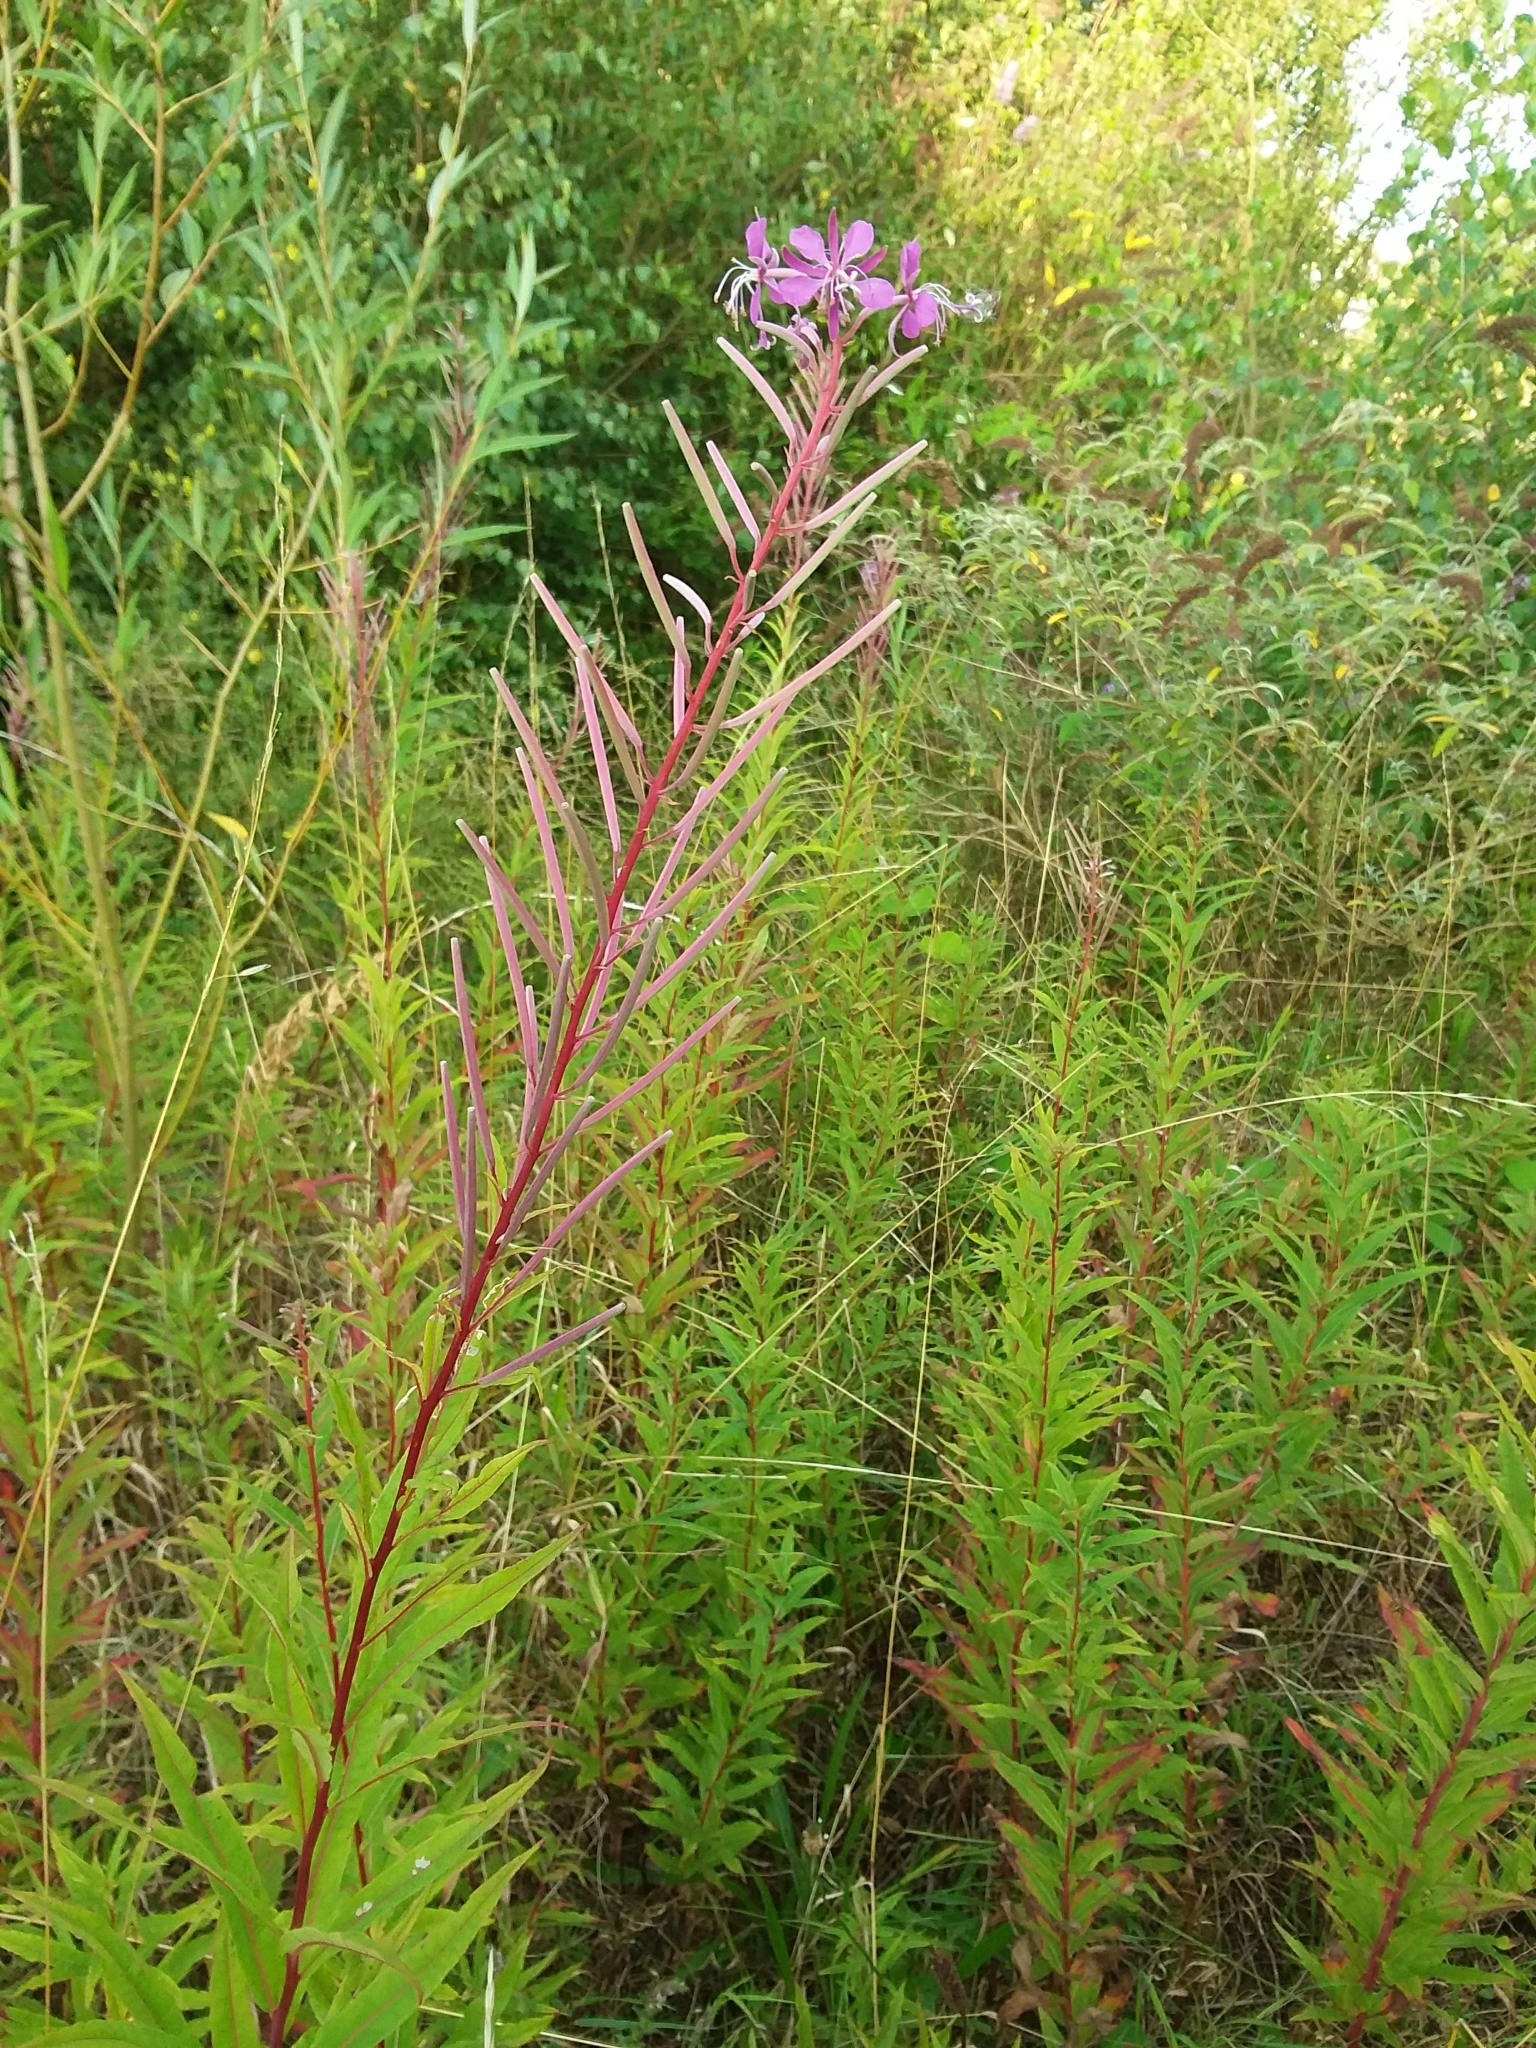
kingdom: Plantae
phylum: Tracheophyta
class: Magnoliopsida
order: Myrtales
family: Onagraceae
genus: Chamaenerion
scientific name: Chamaenerion angustifolium
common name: Fireweed
